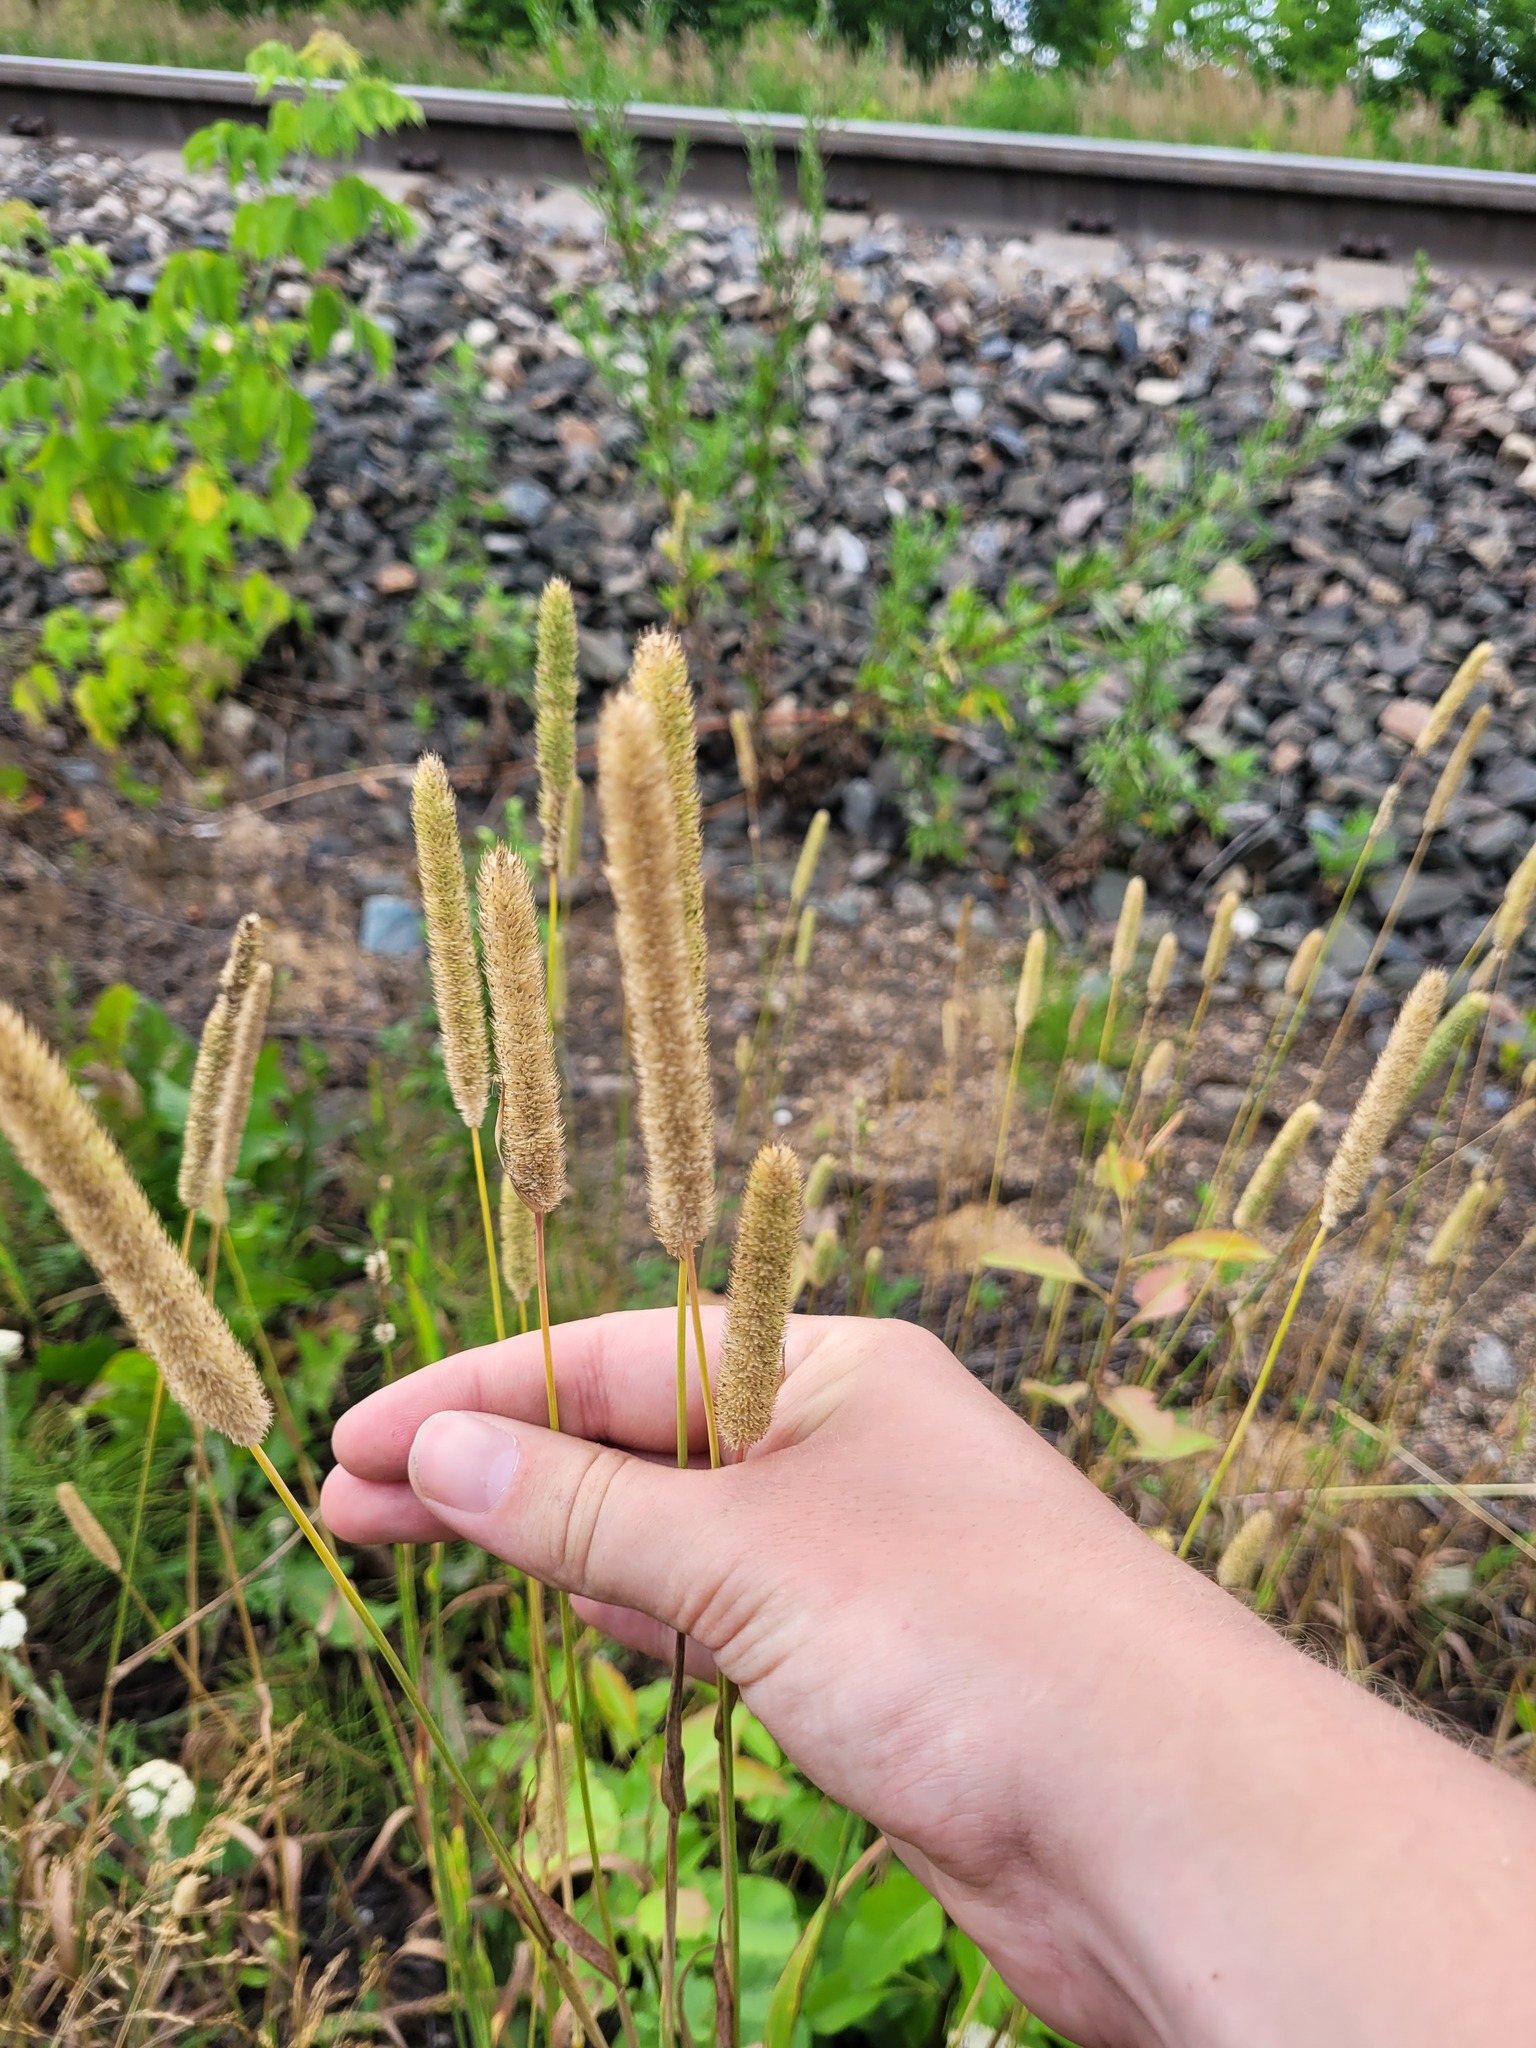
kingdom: Plantae
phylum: Tracheophyta
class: Liliopsida
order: Poales
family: Poaceae
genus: Phleum
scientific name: Phleum pratense
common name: Timothy grass
